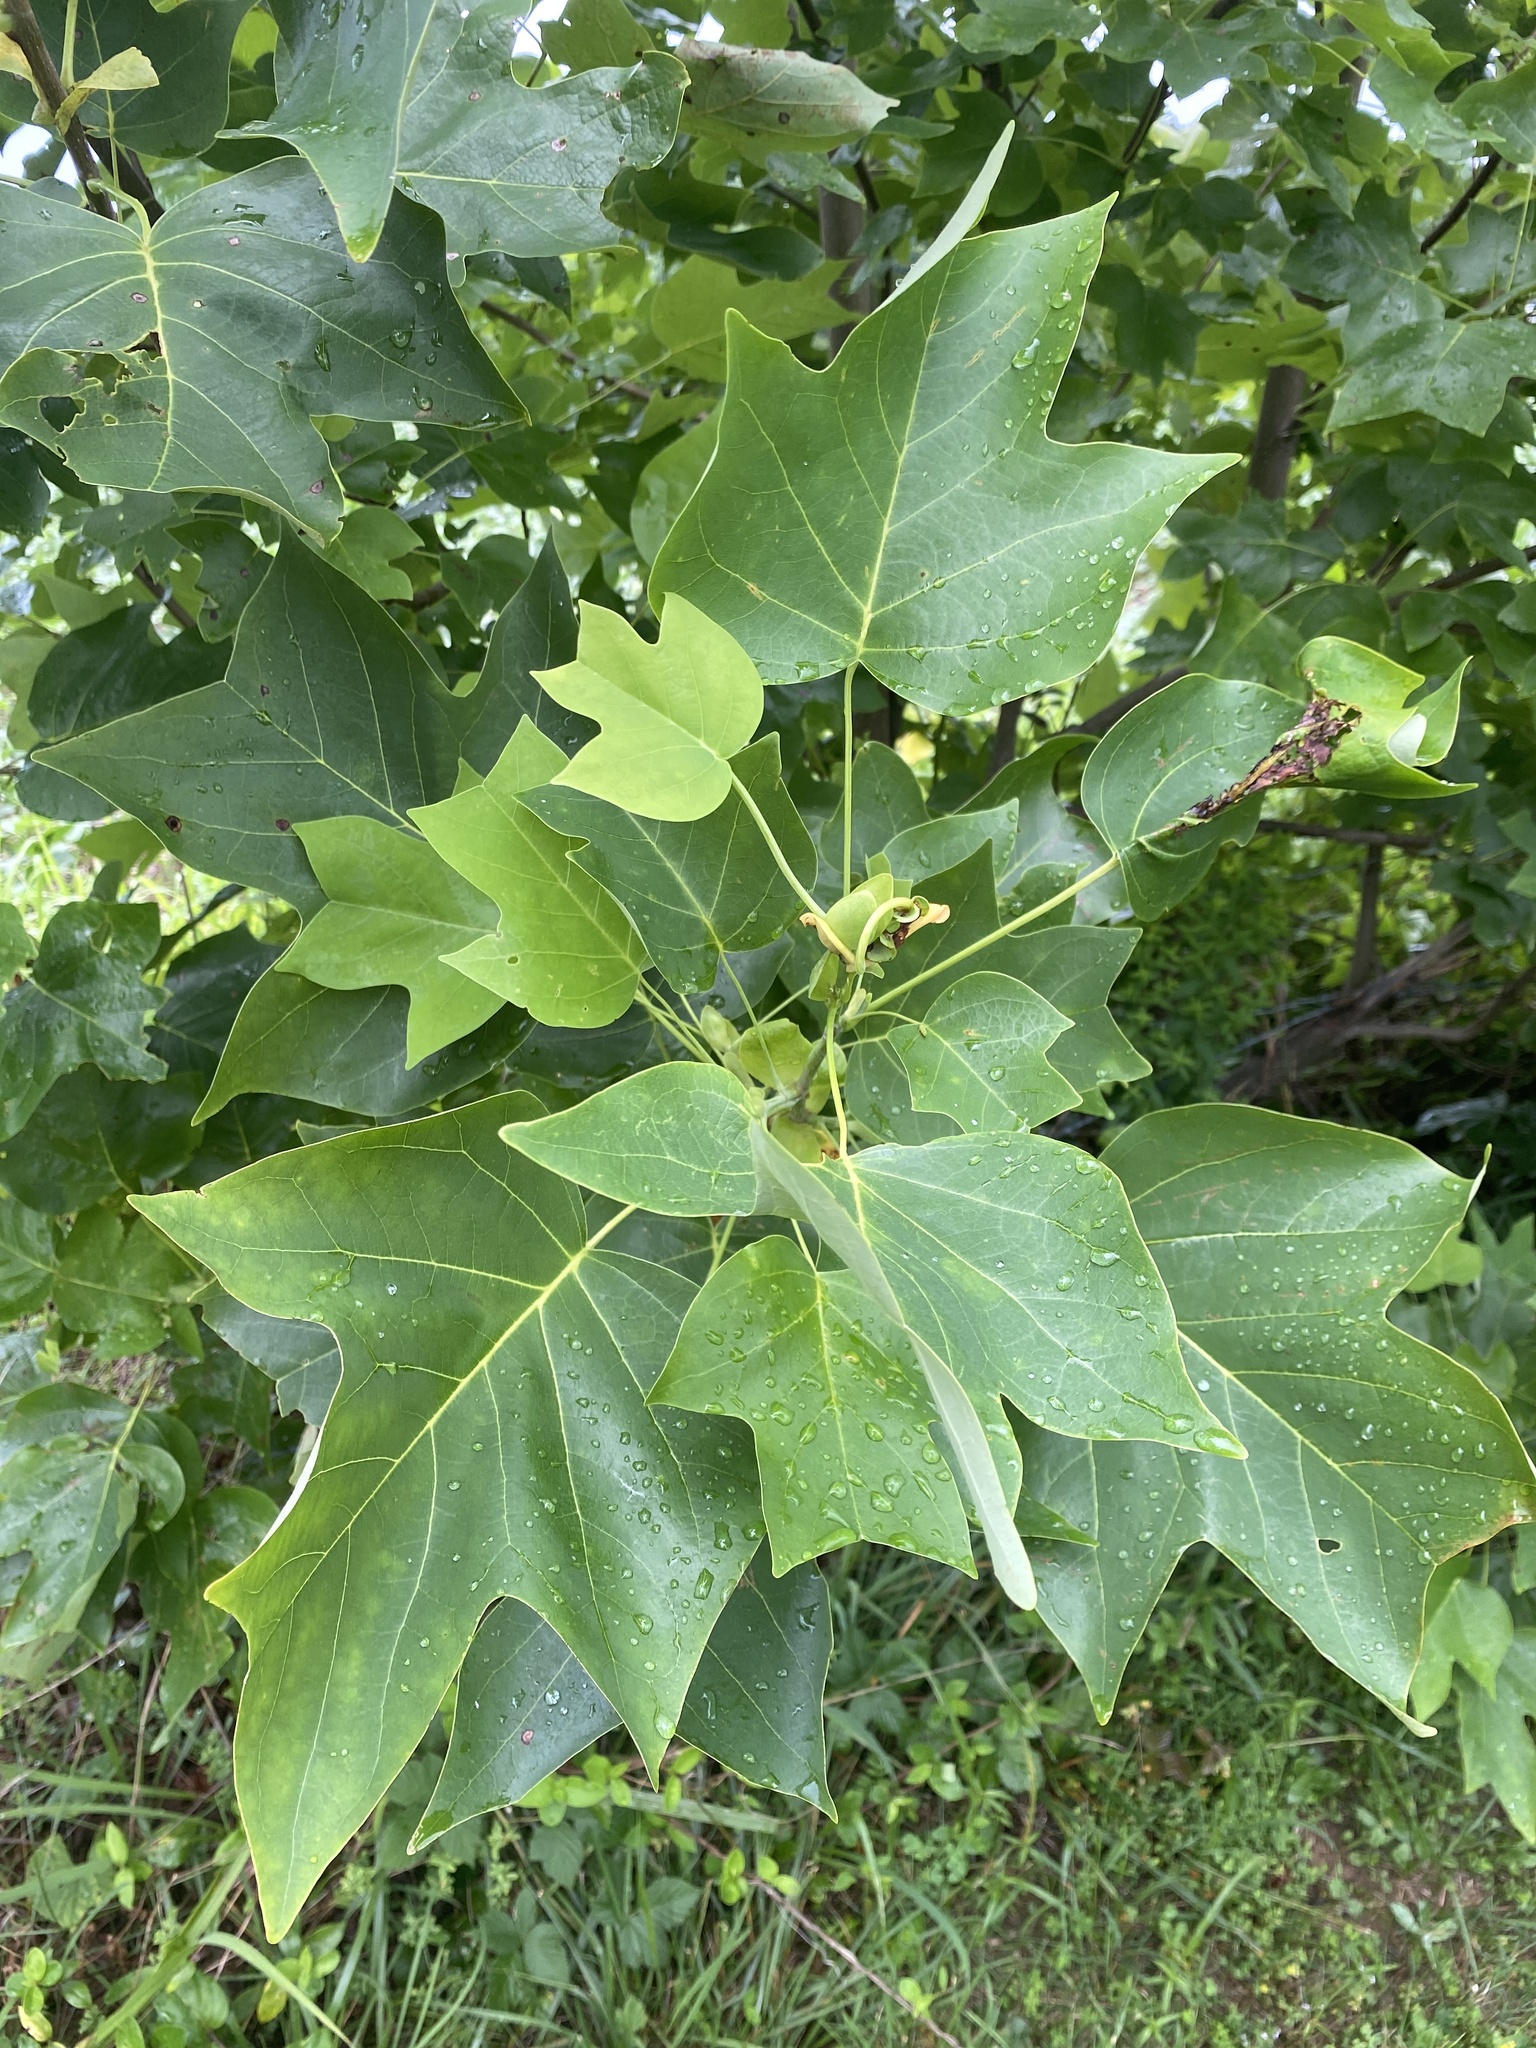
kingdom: Plantae
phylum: Tracheophyta
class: Magnoliopsida
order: Magnoliales
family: Magnoliaceae
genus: Liriodendron
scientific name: Liriodendron tulipifera
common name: Tulip tree
